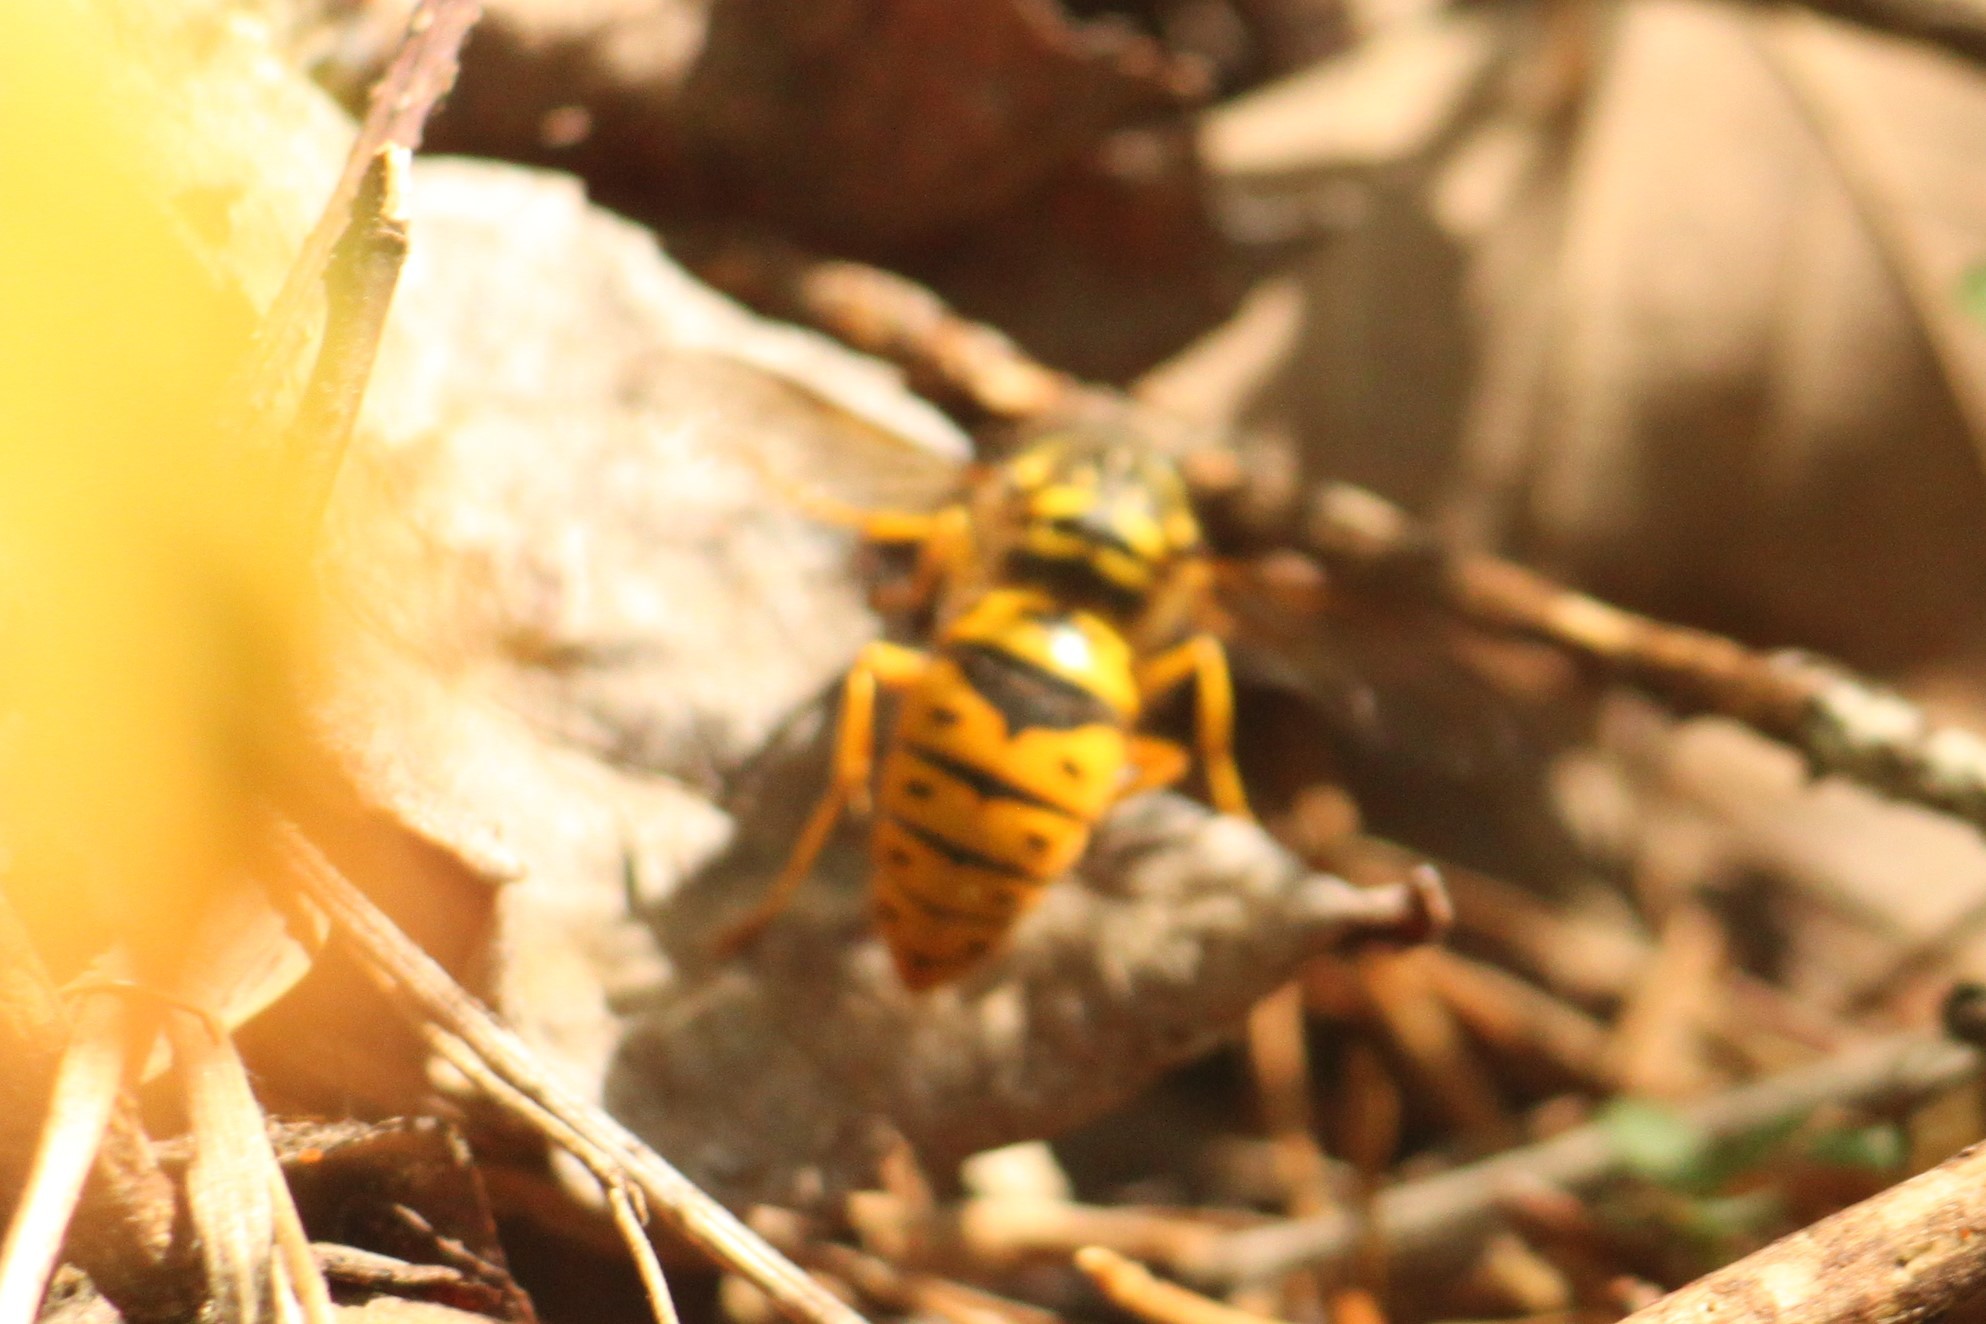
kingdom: Animalia
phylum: Arthropoda
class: Insecta
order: Hymenoptera
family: Vespidae
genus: Vespula
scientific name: Vespula maculifrons
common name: Eastern yellowjacket
